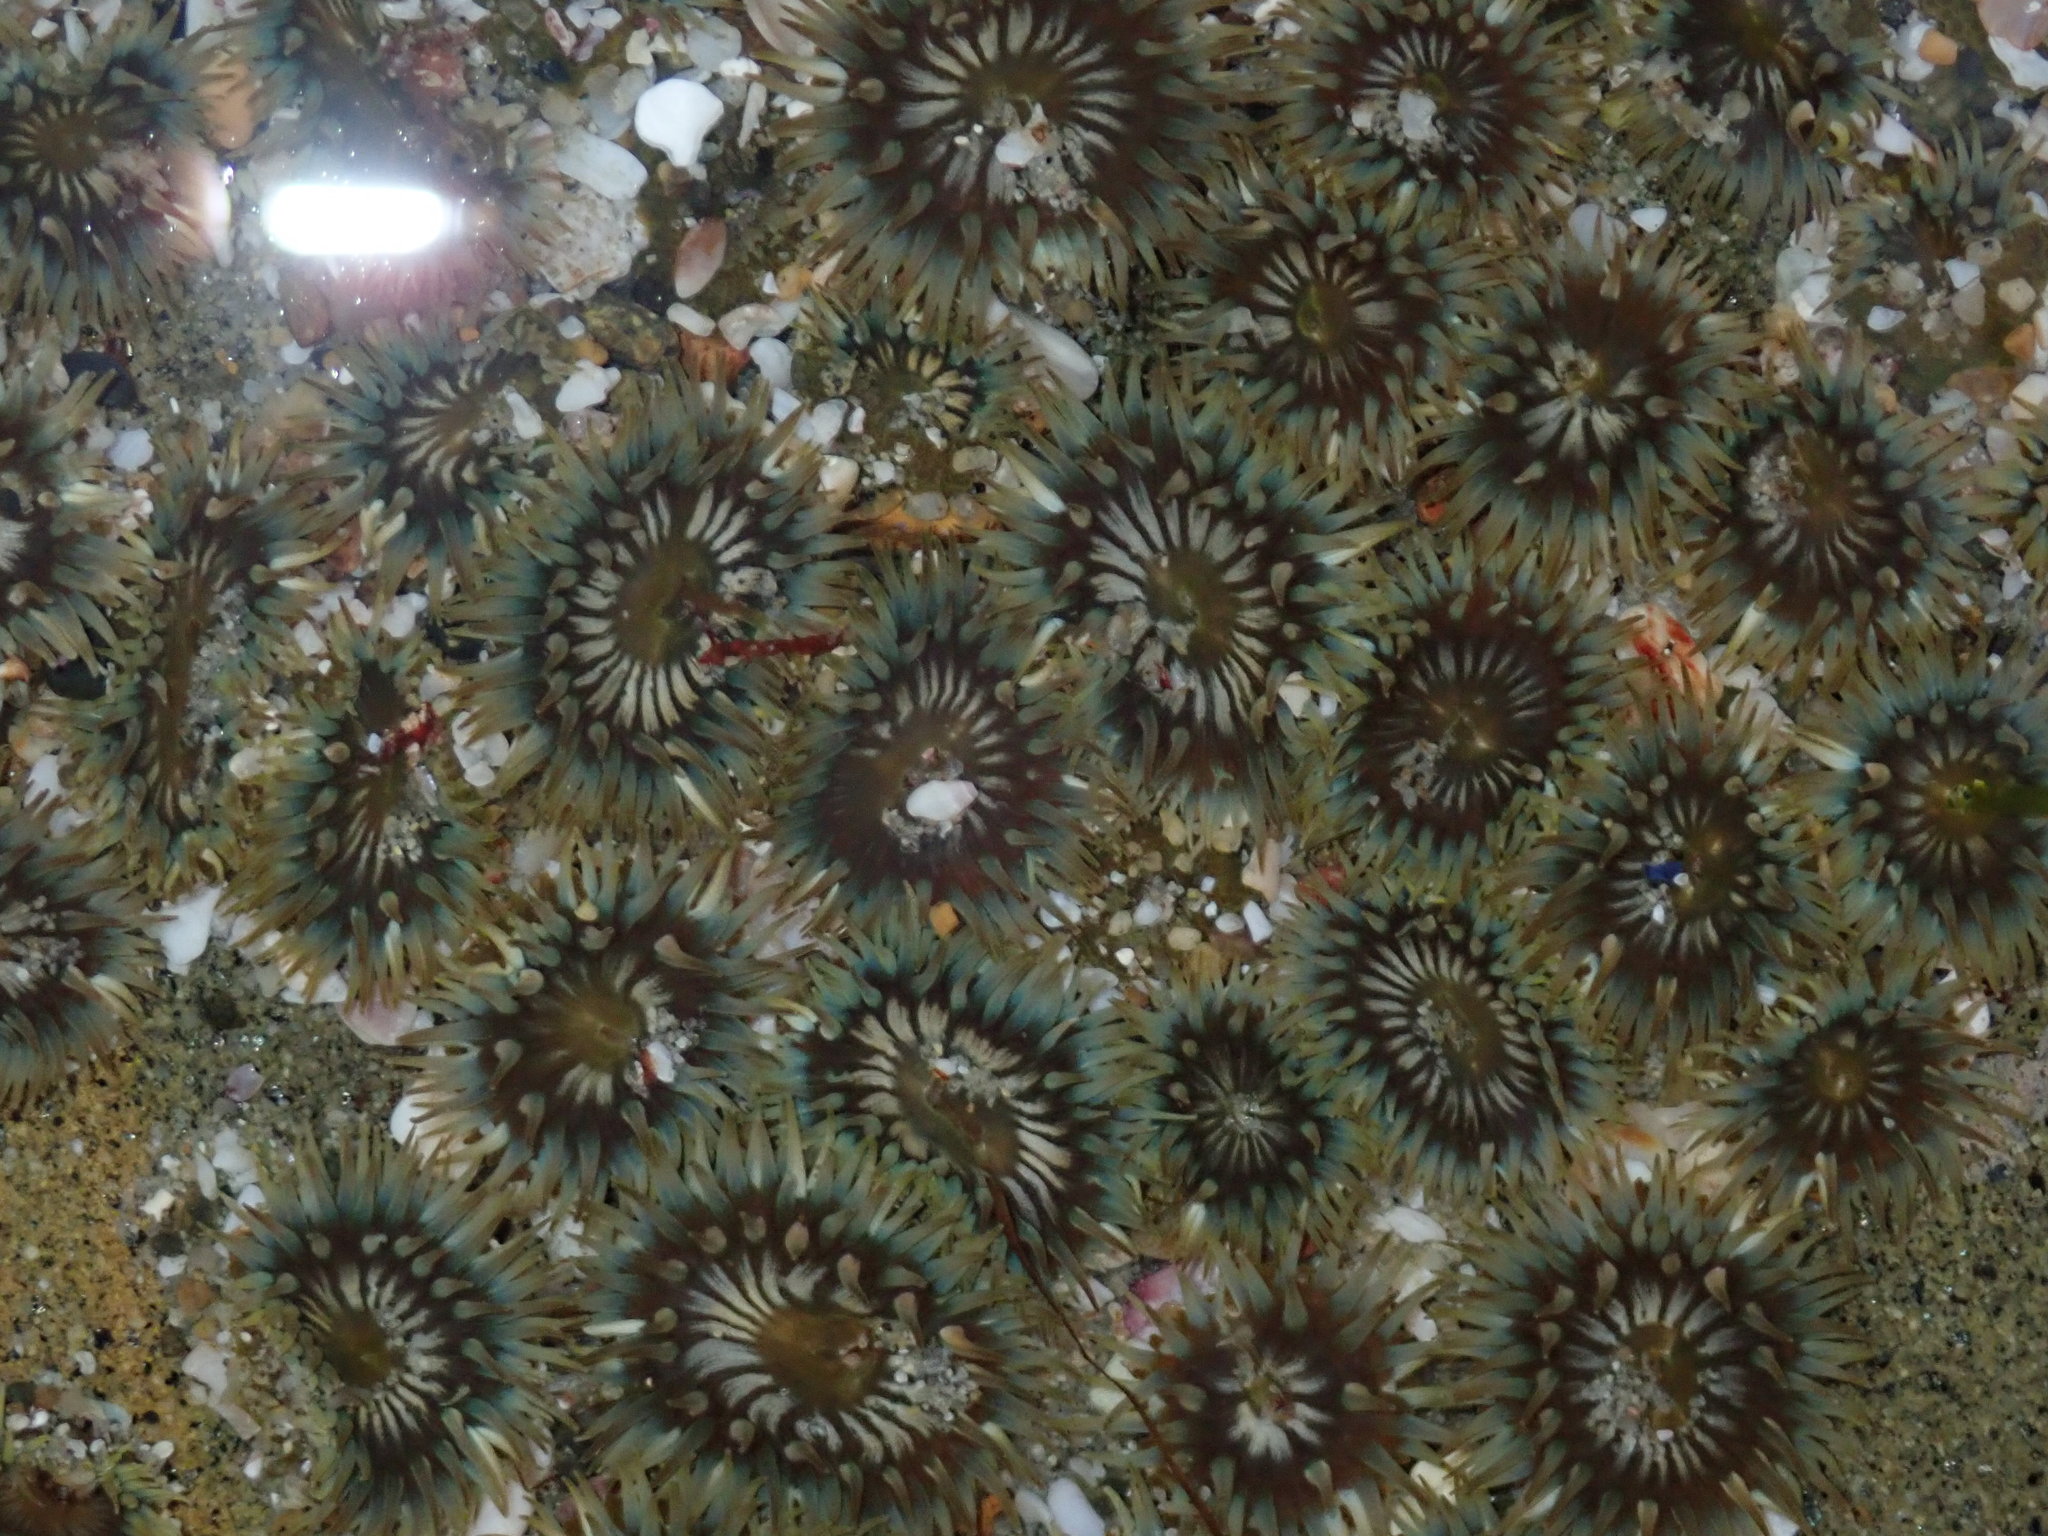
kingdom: Animalia
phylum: Cnidaria
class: Anthozoa
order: Actiniaria
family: Actiniidae
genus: Anthopleura
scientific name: Anthopleura elegantissima
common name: Clonal anemone
